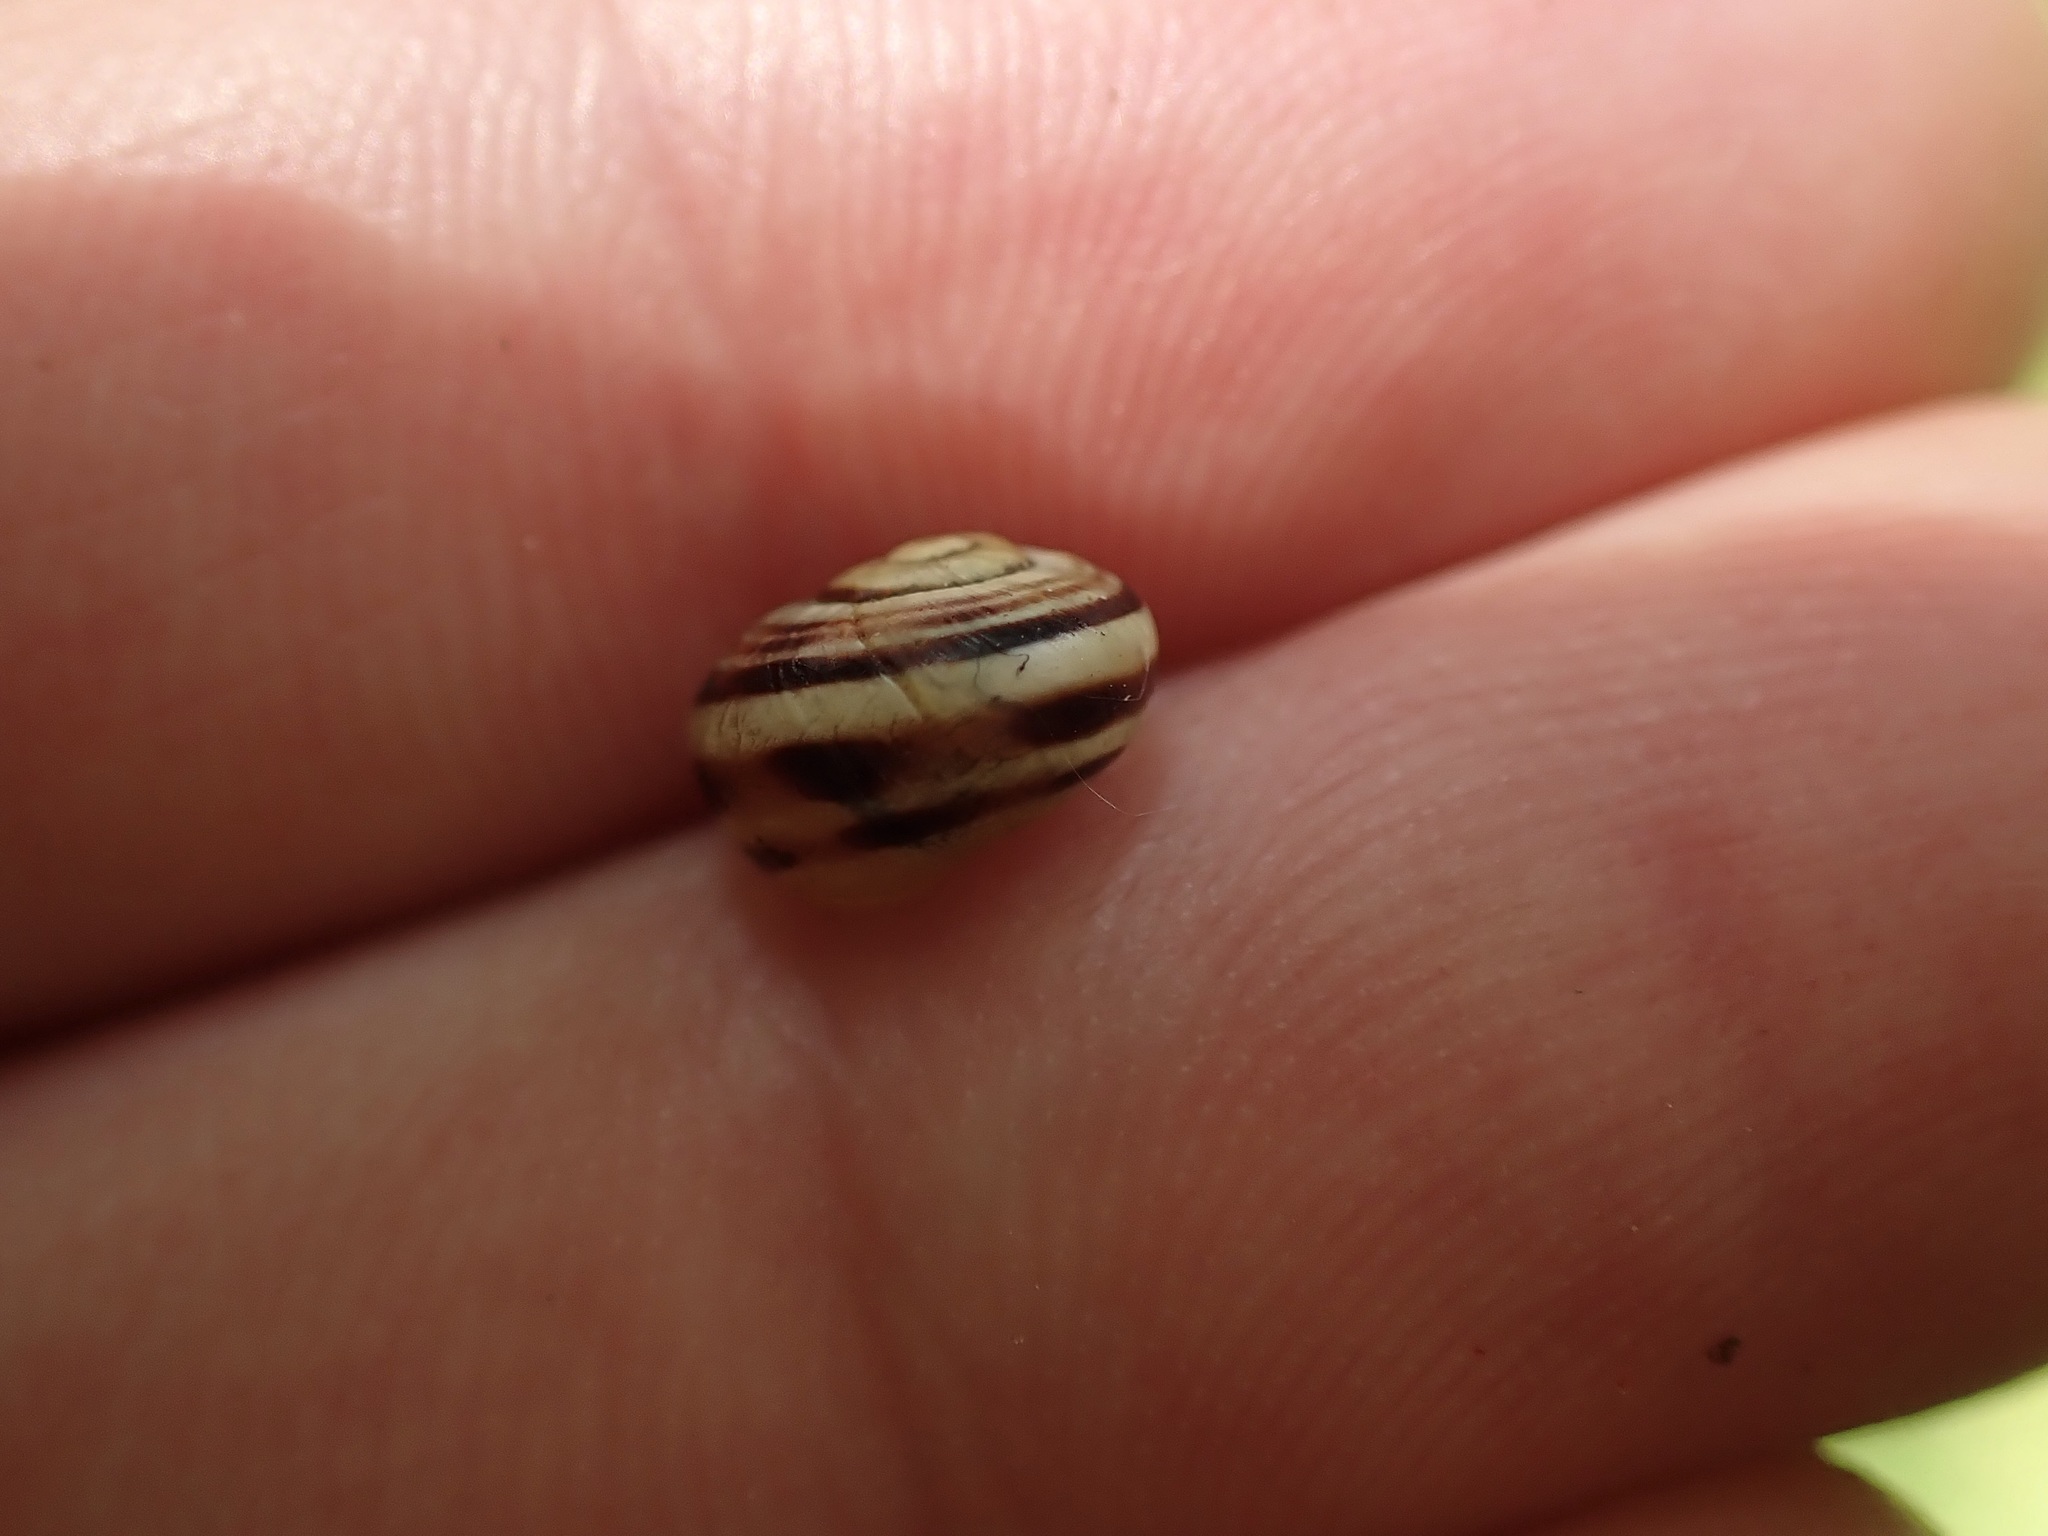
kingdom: Animalia
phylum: Mollusca
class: Gastropoda
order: Stylommatophora
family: Helicidae
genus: Cepaea
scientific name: Cepaea
